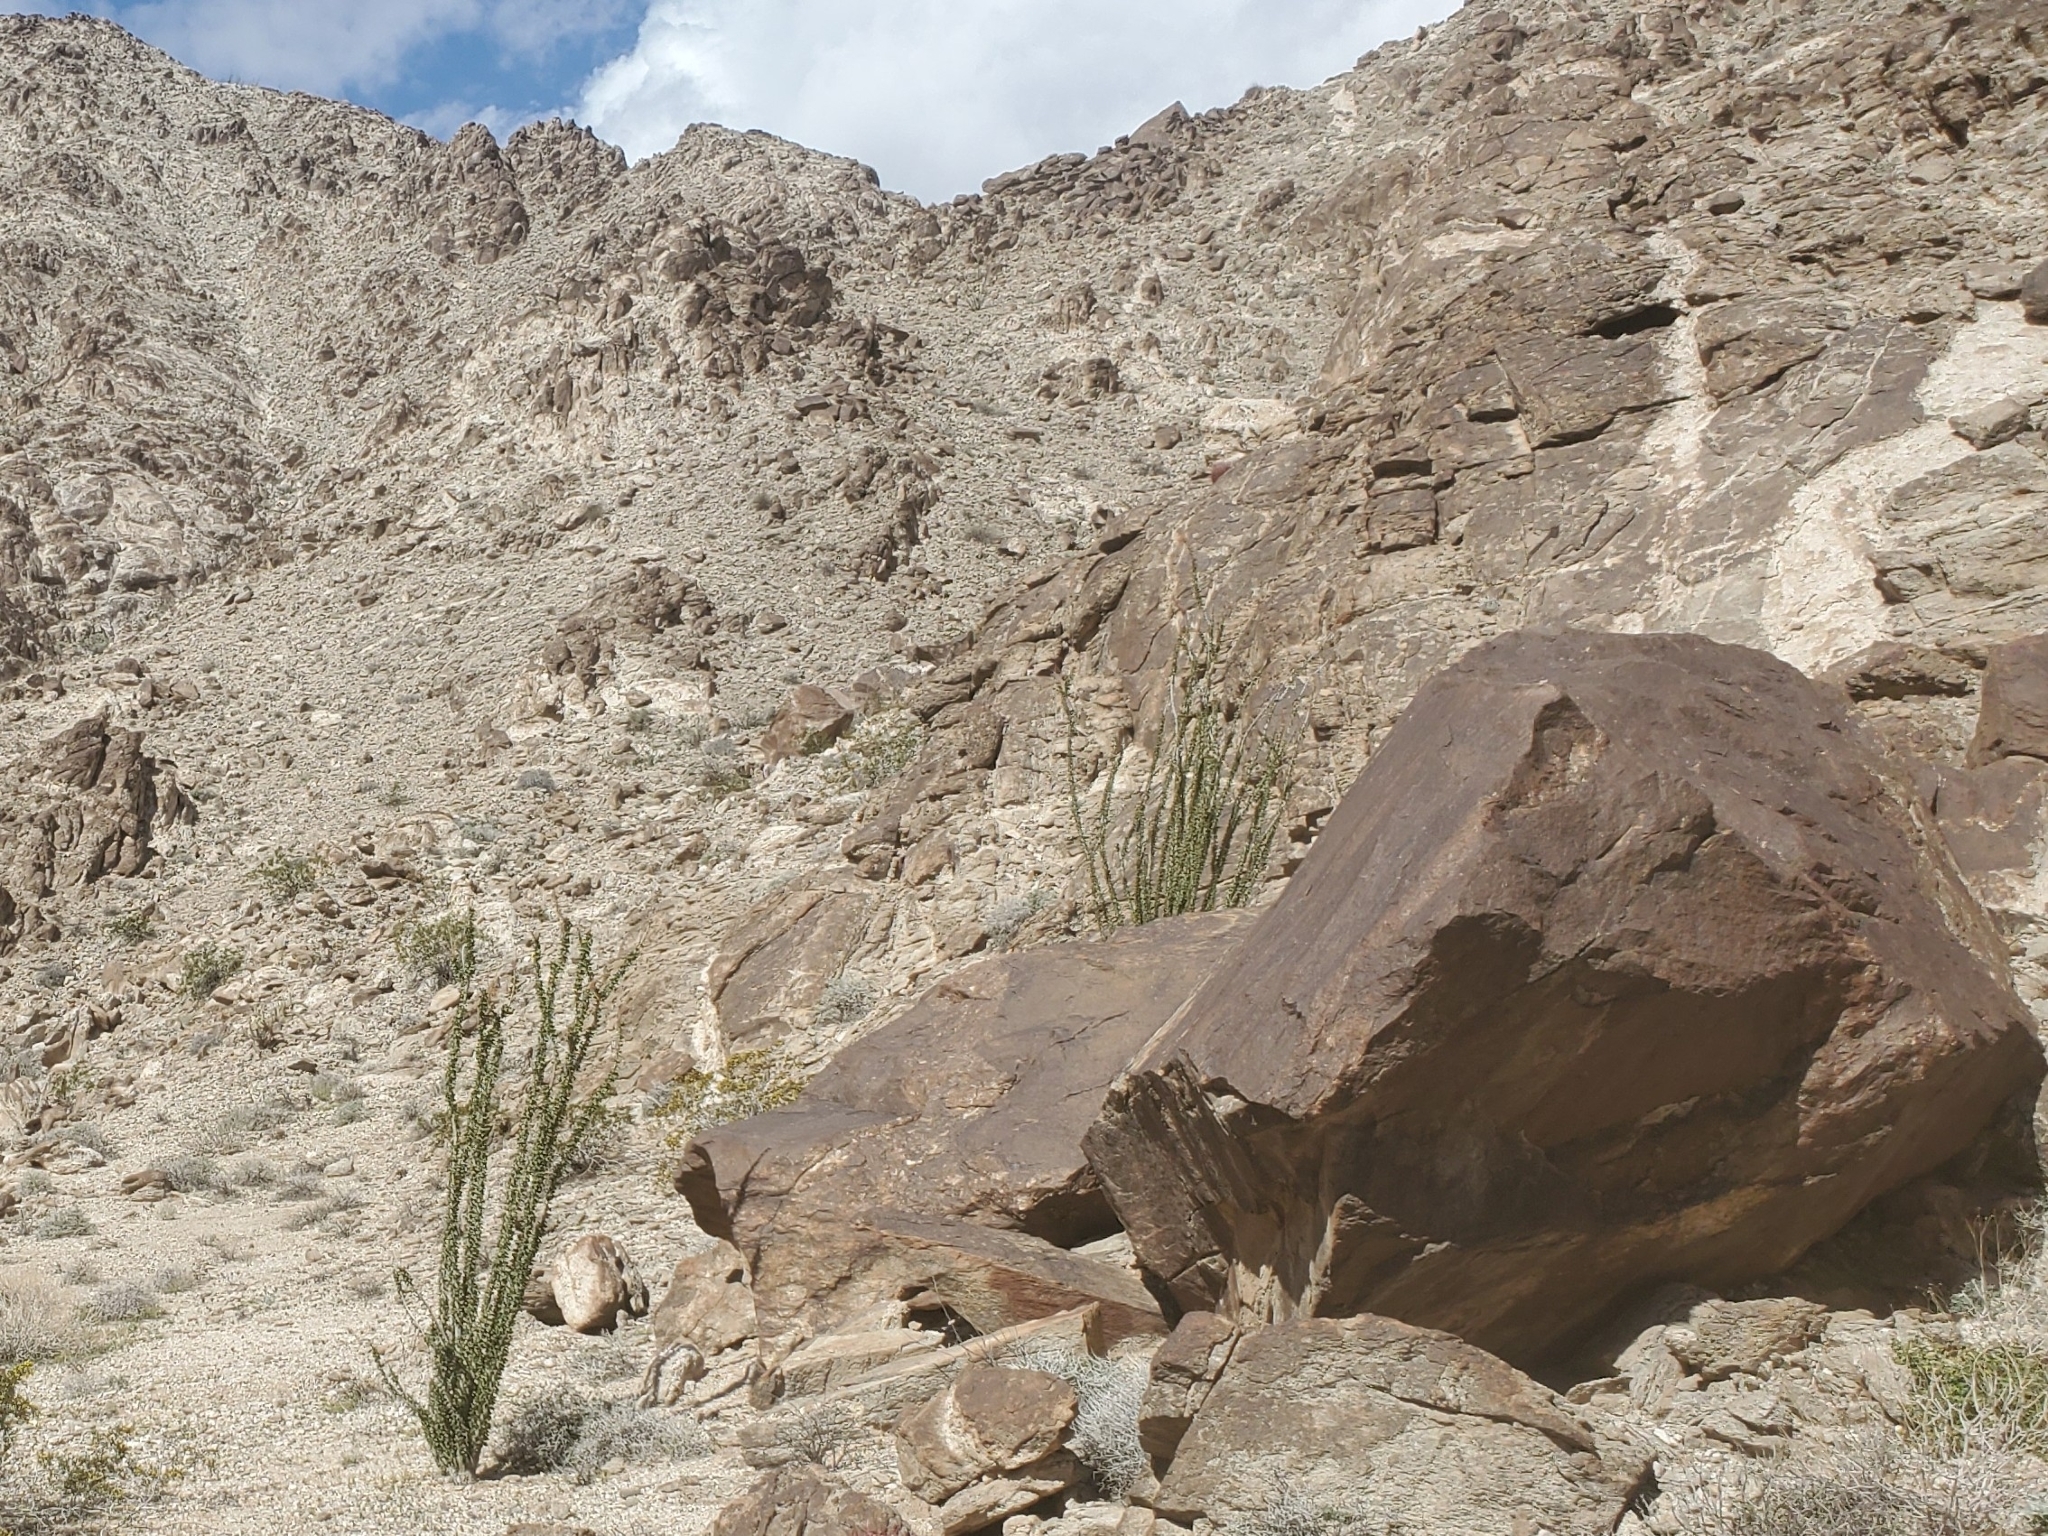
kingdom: Plantae
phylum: Tracheophyta
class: Magnoliopsida
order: Ericales
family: Fouquieriaceae
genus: Fouquieria
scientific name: Fouquieria splendens
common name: Vine-cactus
